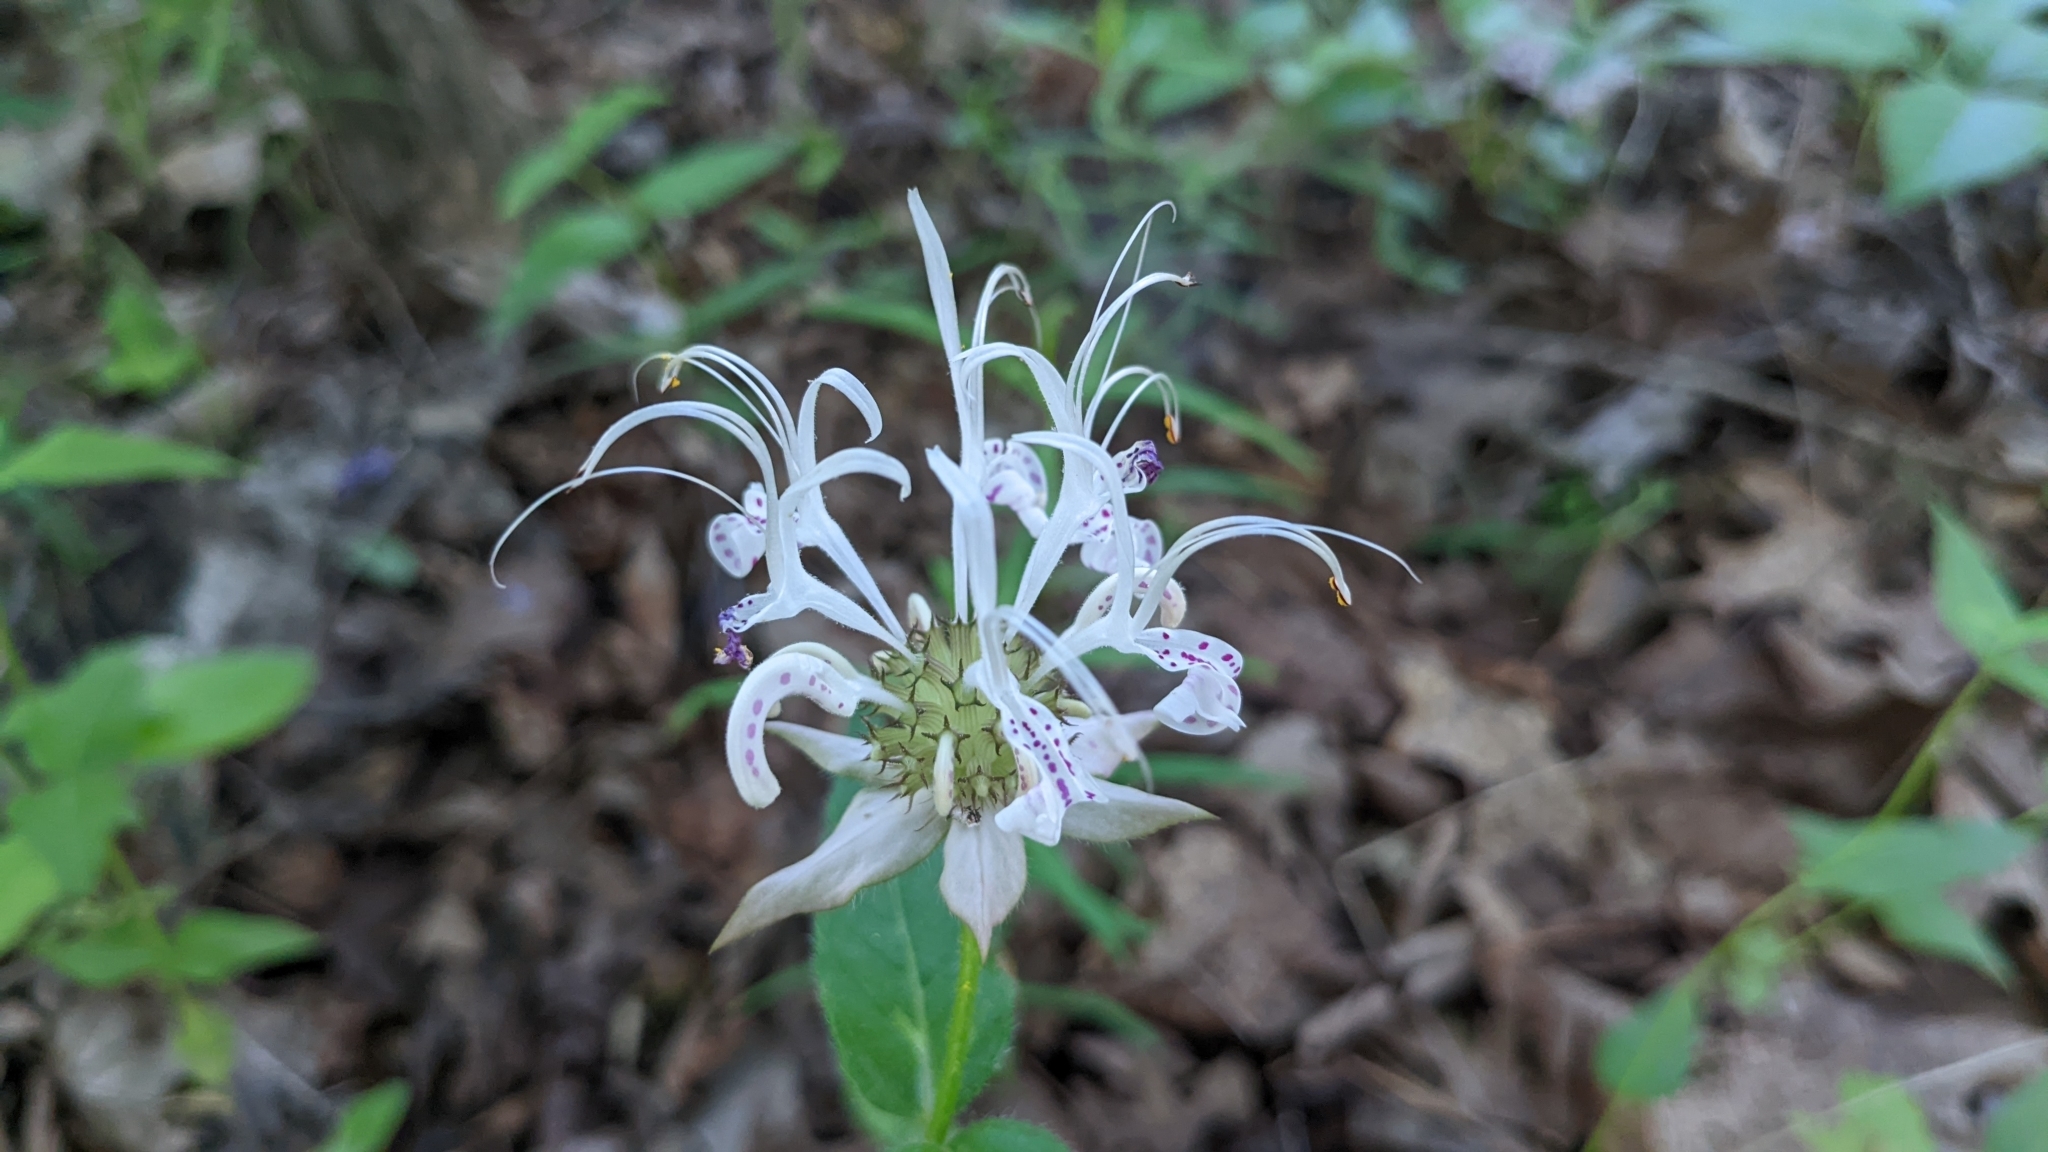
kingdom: Plantae
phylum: Tracheophyta
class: Magnoliopsida
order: Lamiales
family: Lamiaceae
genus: Monarda
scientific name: Monarda russeliana
